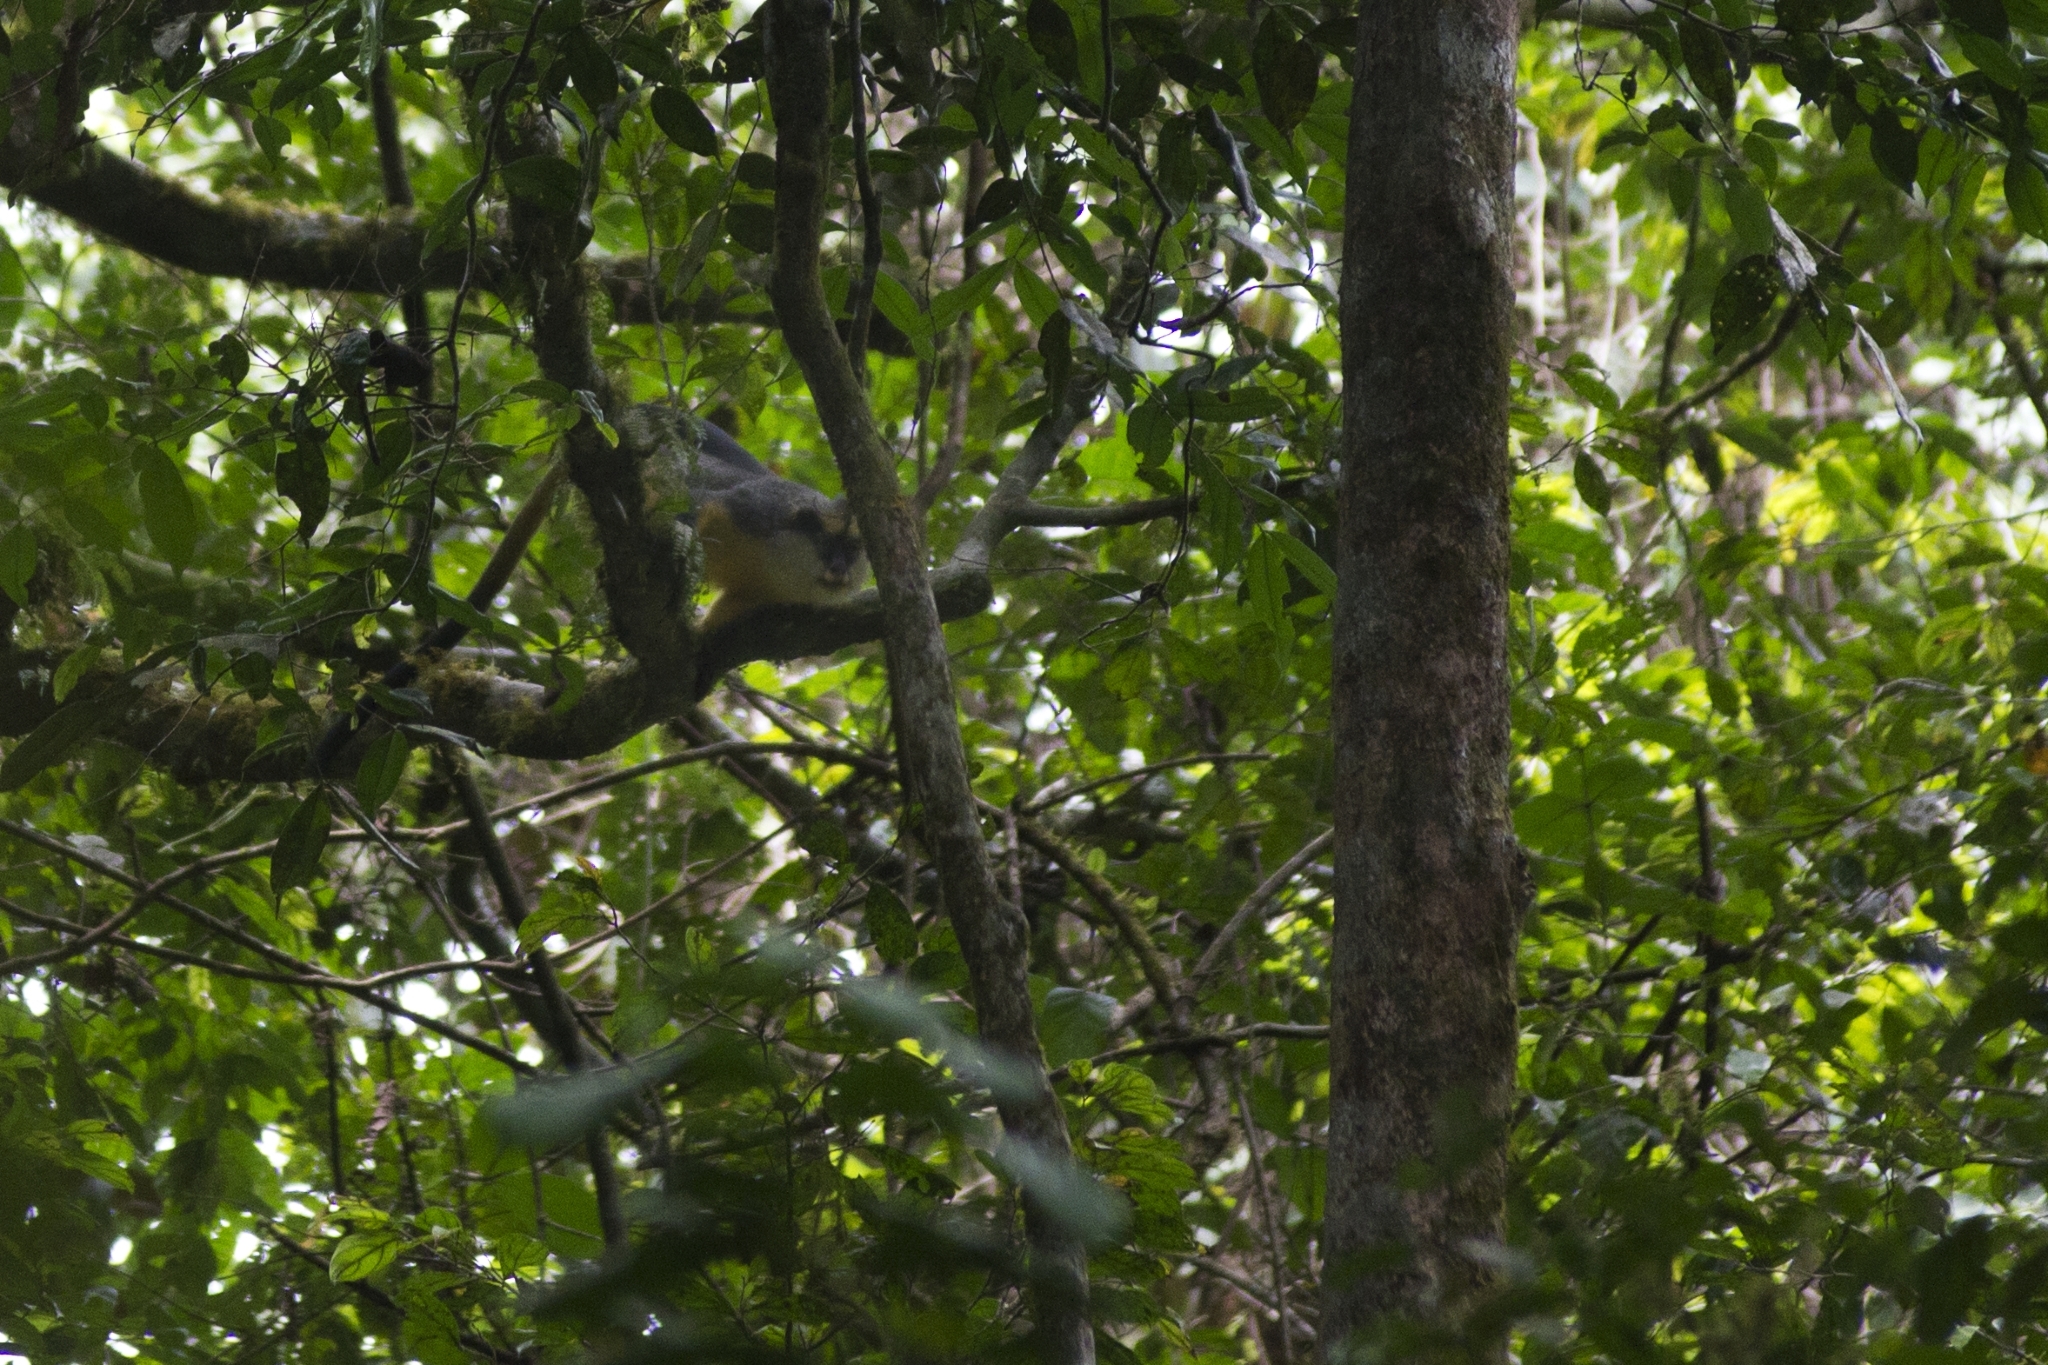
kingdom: Animalia
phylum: Chordata
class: Mammalia
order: Primates
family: Cercopithecidae
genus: Cercopithecus
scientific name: Cercopithecus pogonias
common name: Crested mona monkey
